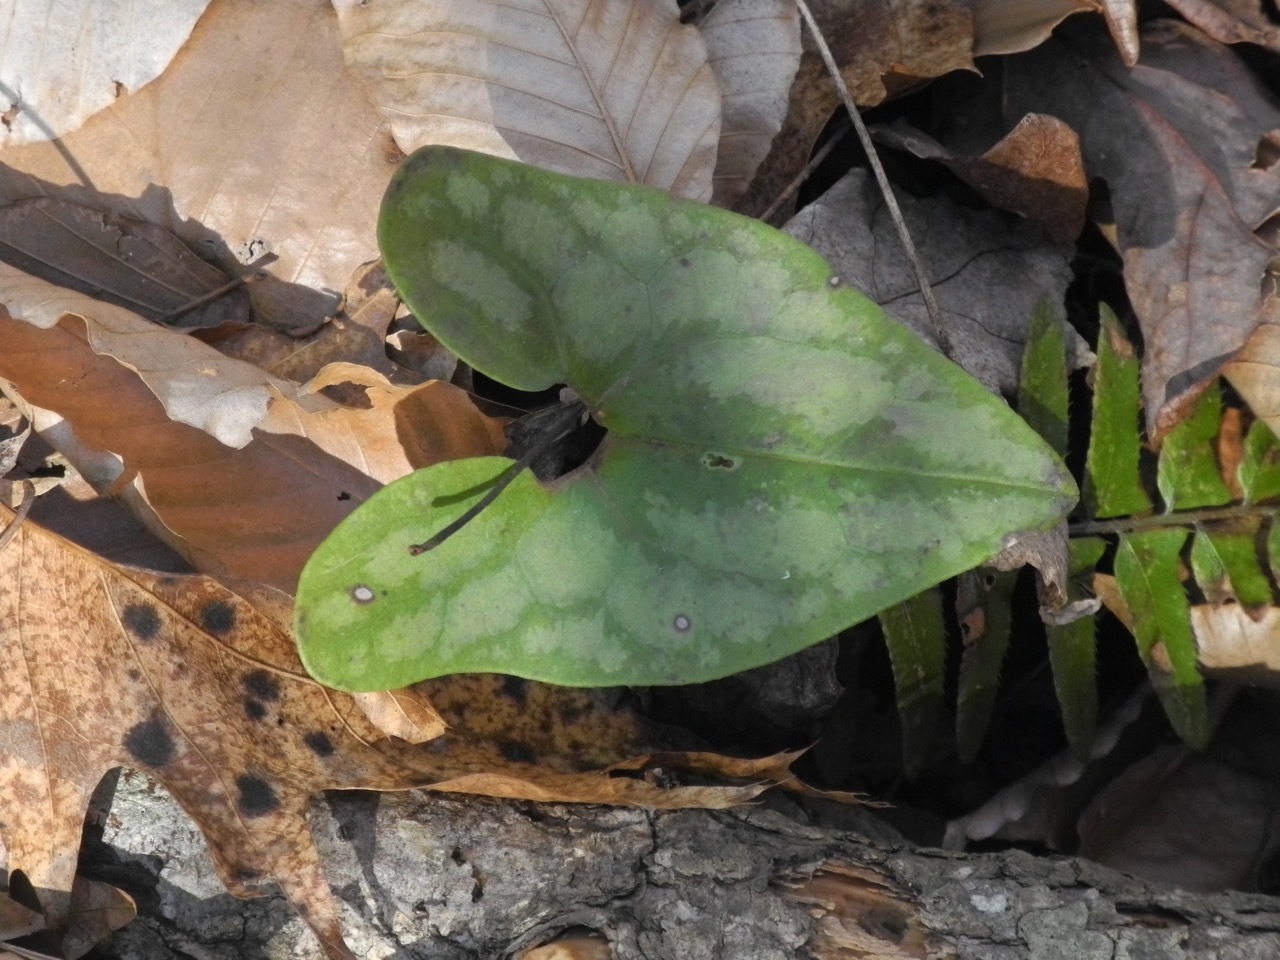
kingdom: Plantae
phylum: Tracheophyta
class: Magnoliopsida
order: Piperales
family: Aristolochiaceae
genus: Hexastylis
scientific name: Hexastylis arifolia
